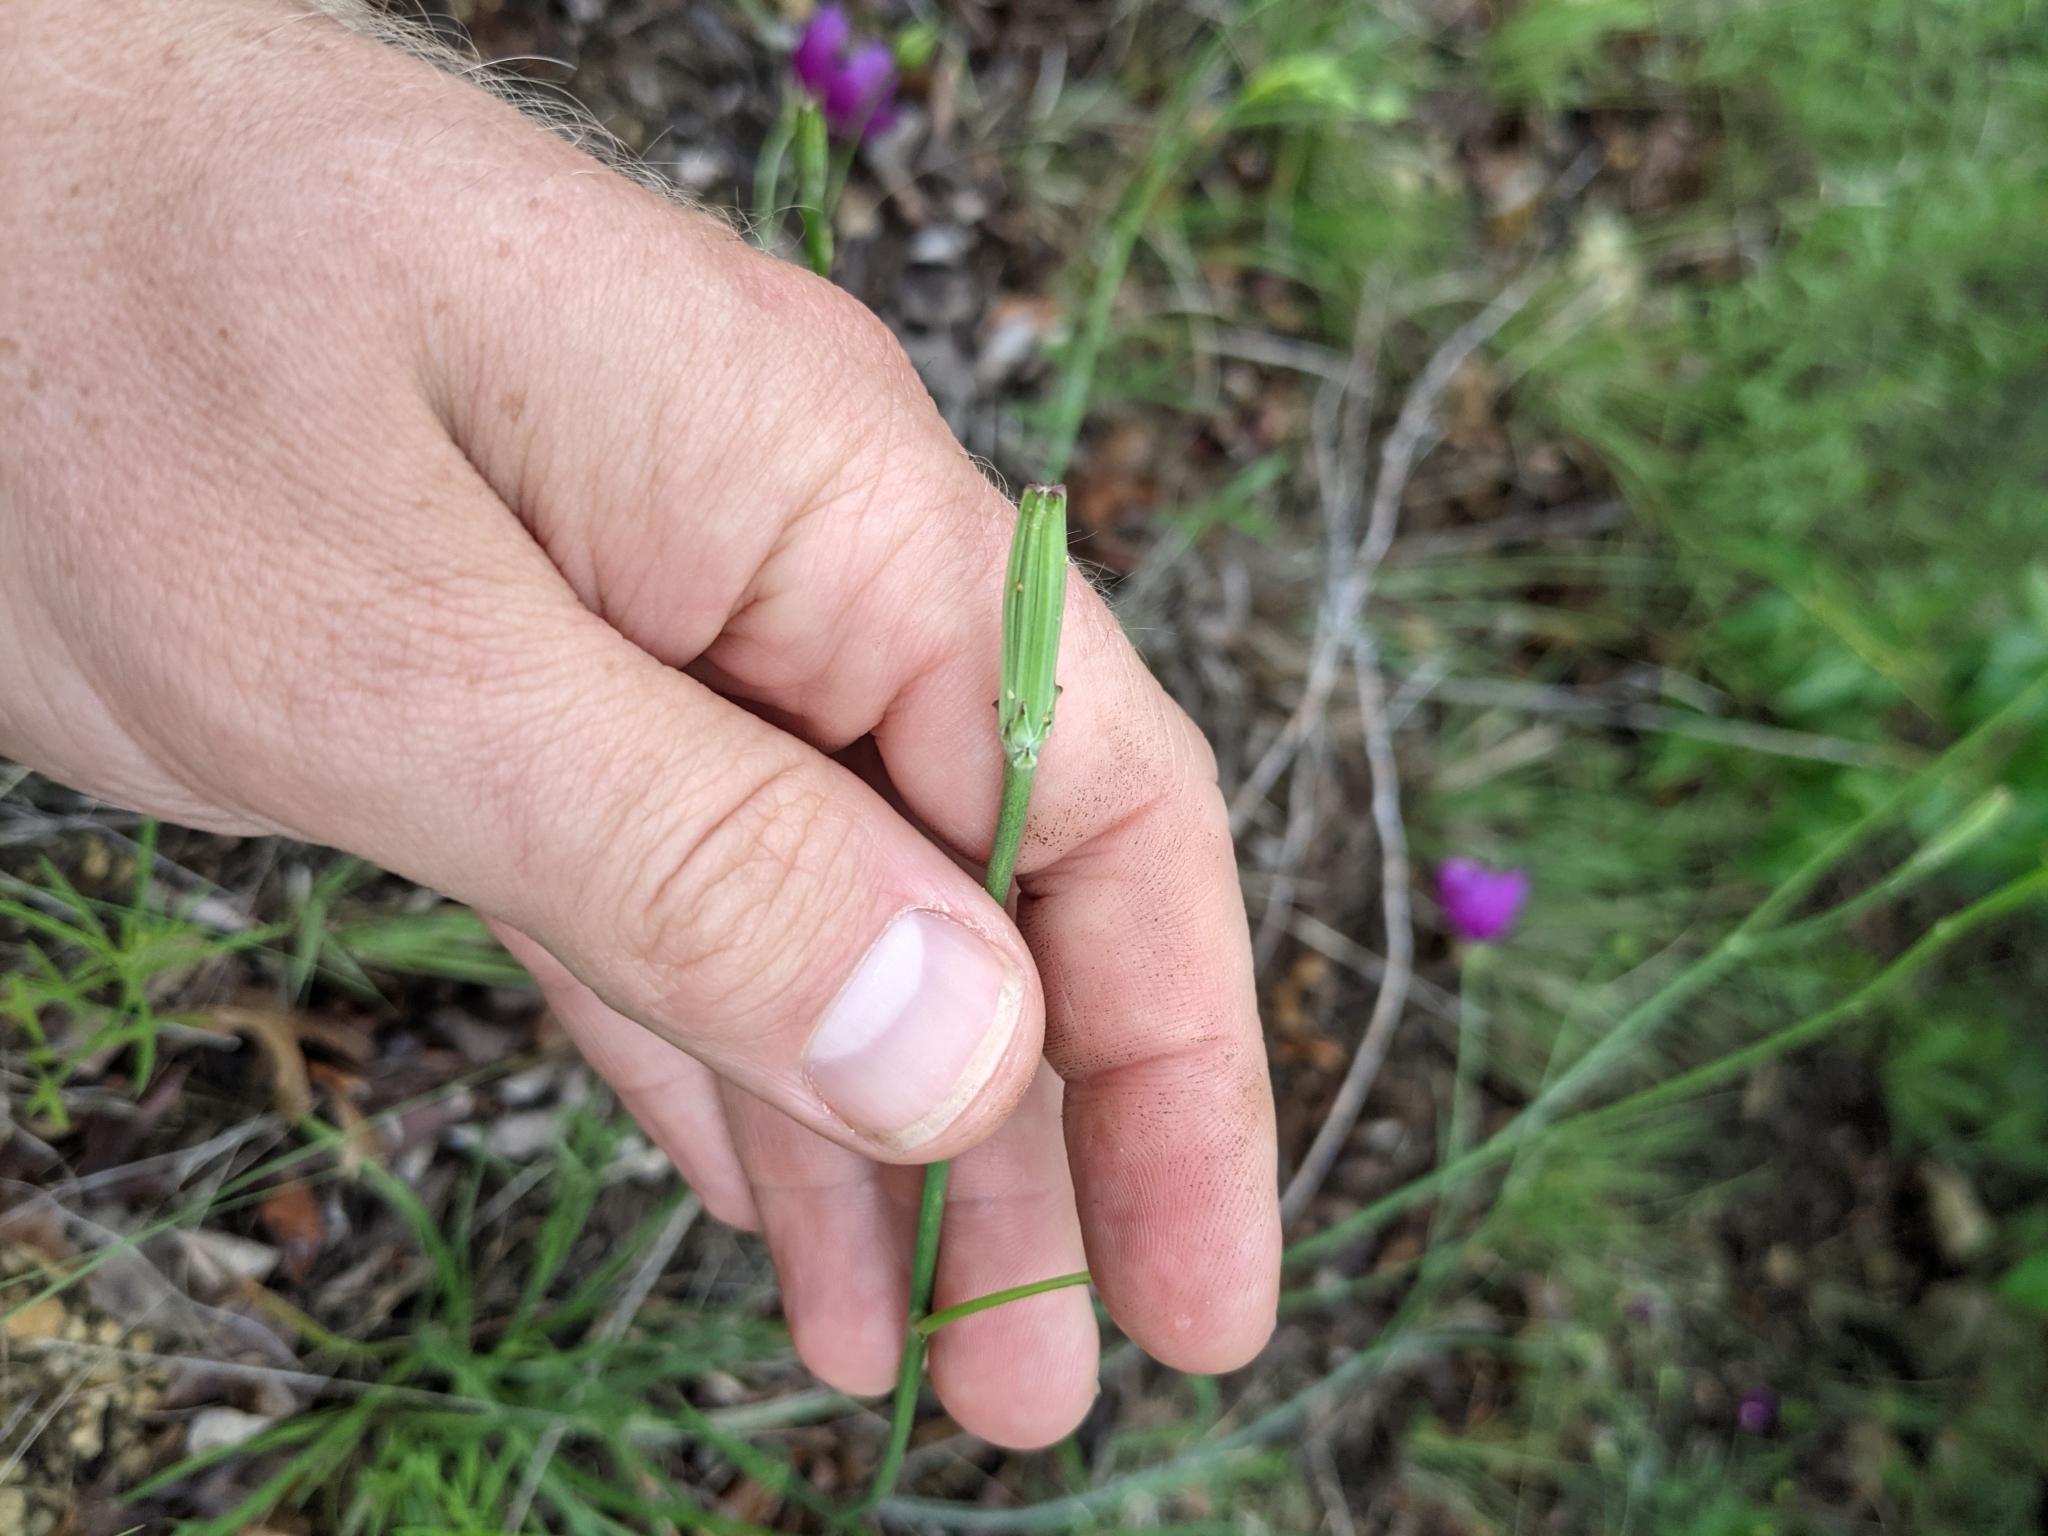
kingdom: Plantae
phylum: Tracheophyta
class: Magnoliopsida
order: Asterales
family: Asteraceae
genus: Lygodesmia
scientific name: Lygodesmia texana
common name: Texas skeleton-plant
